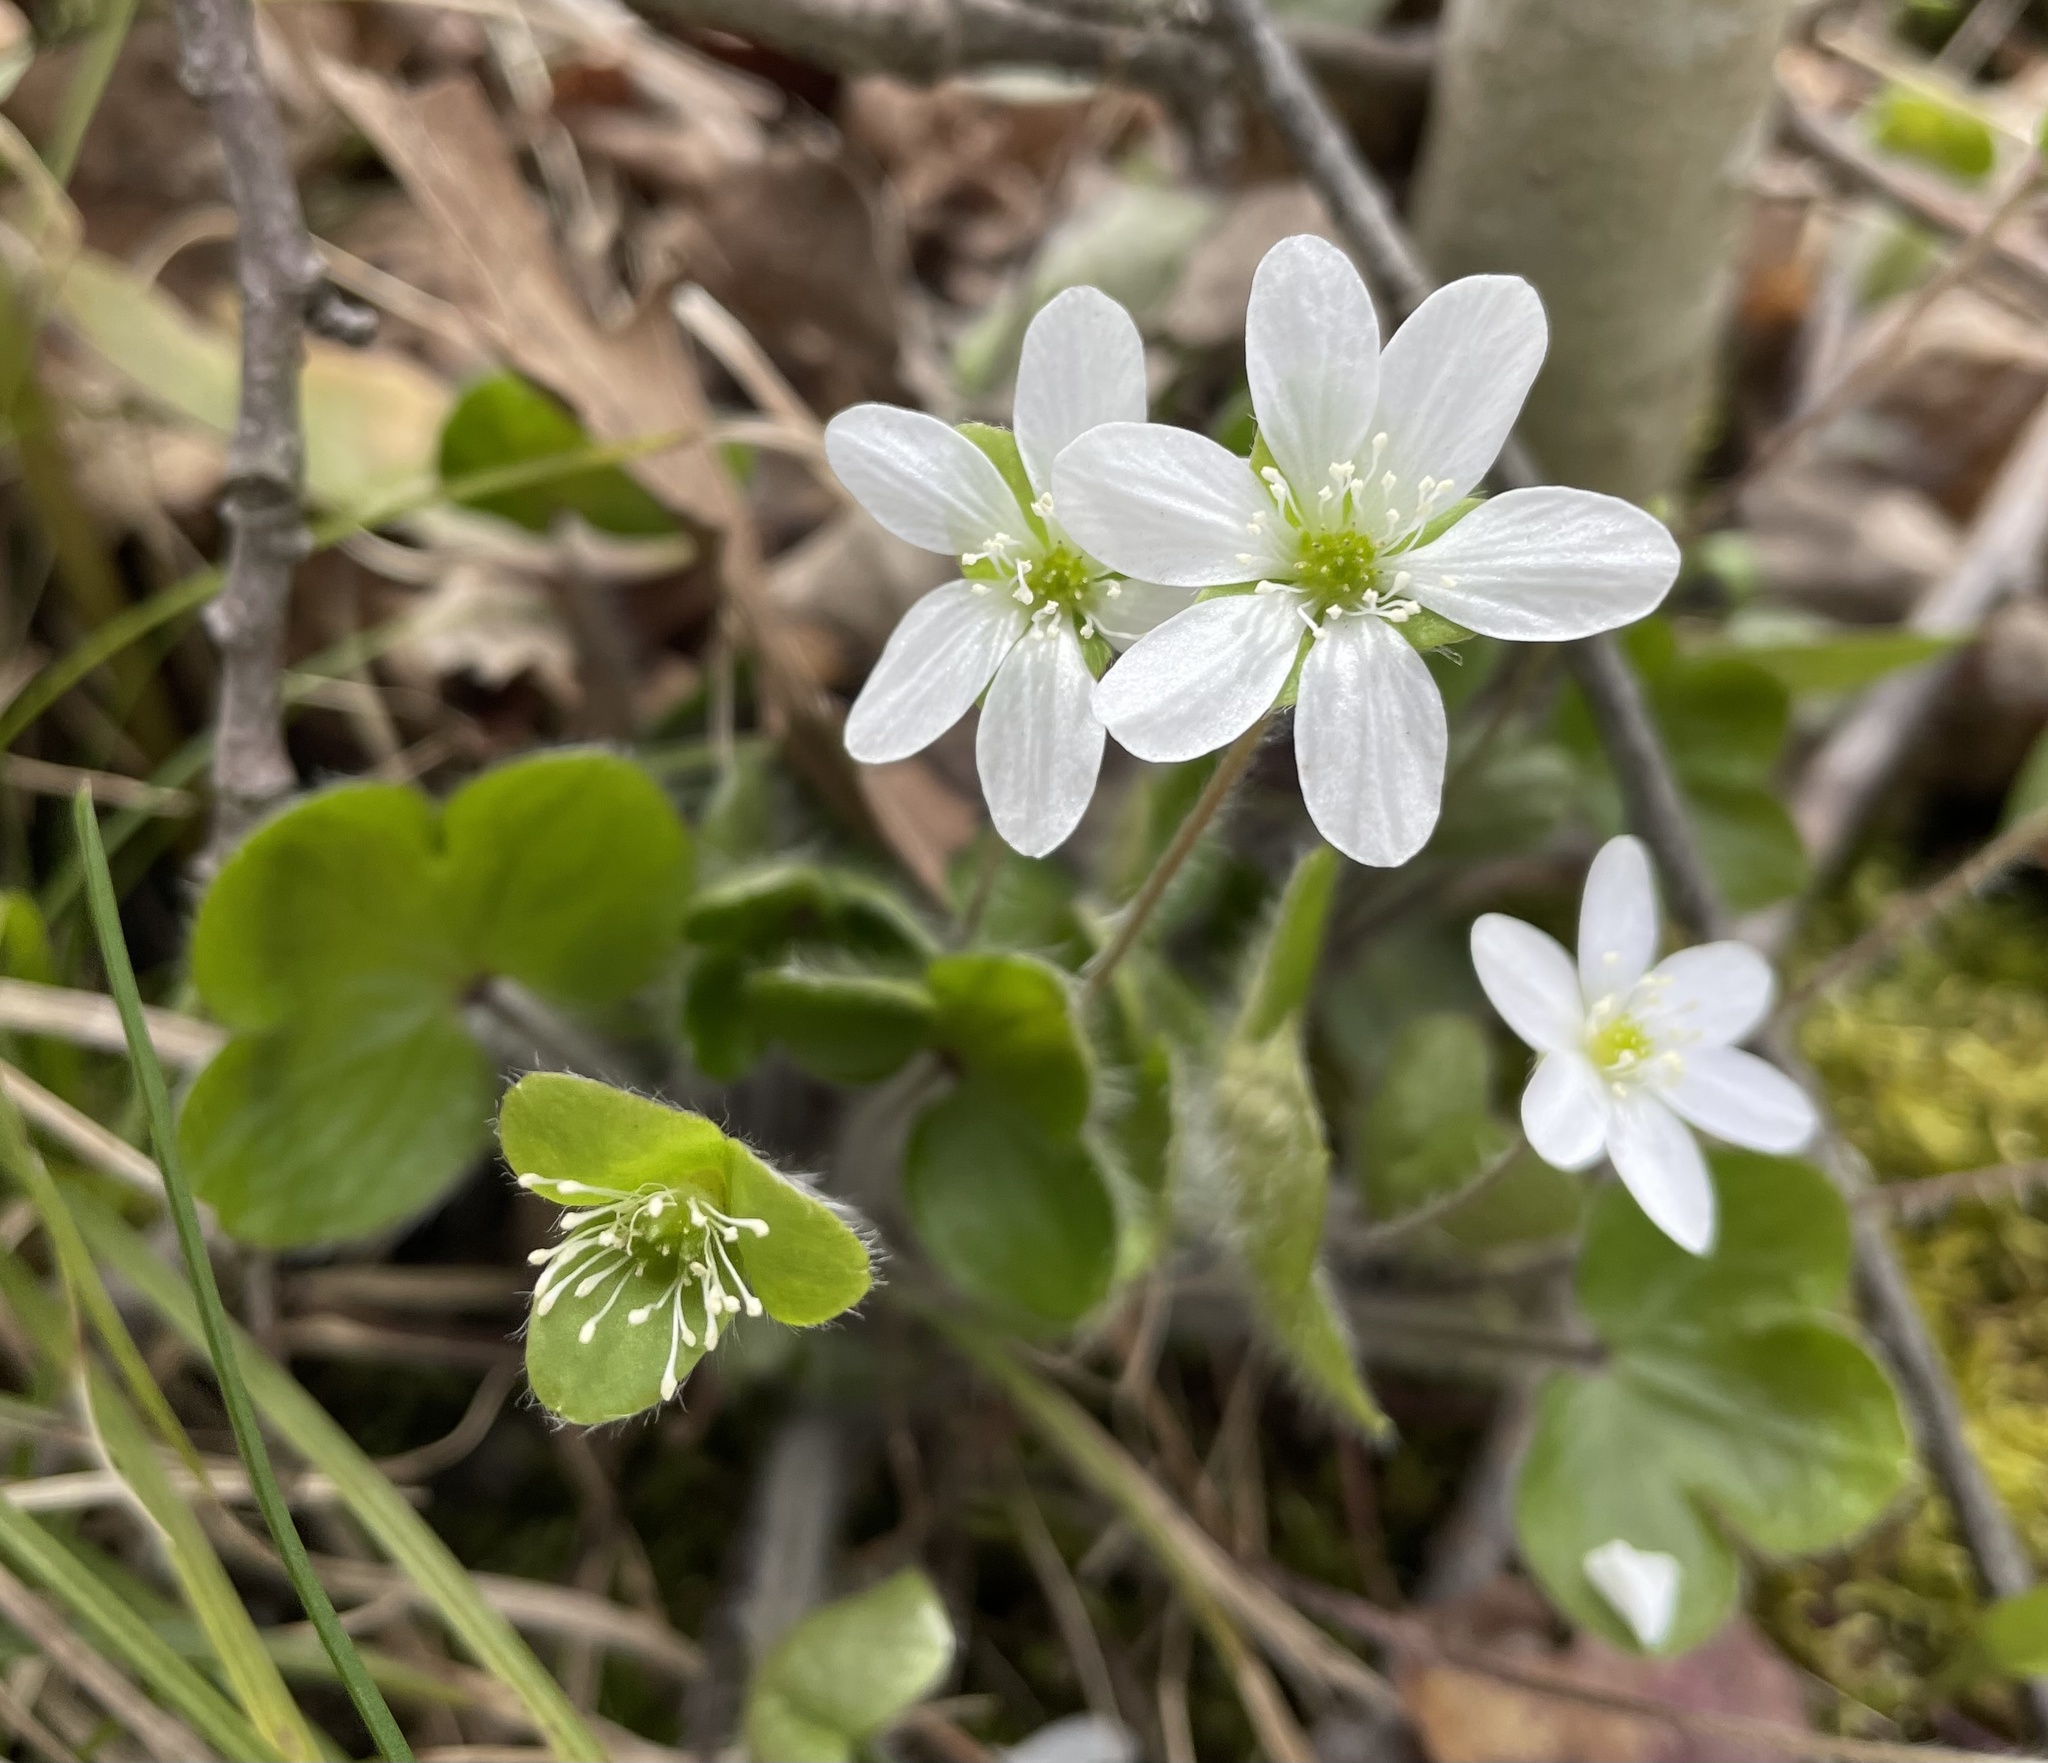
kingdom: Plantae
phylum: Tracheophyta
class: Magnoliopsida
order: Ranunculales
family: Ranunculaceae
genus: Hepatica
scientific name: Hepatica americana
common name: American hepatica
